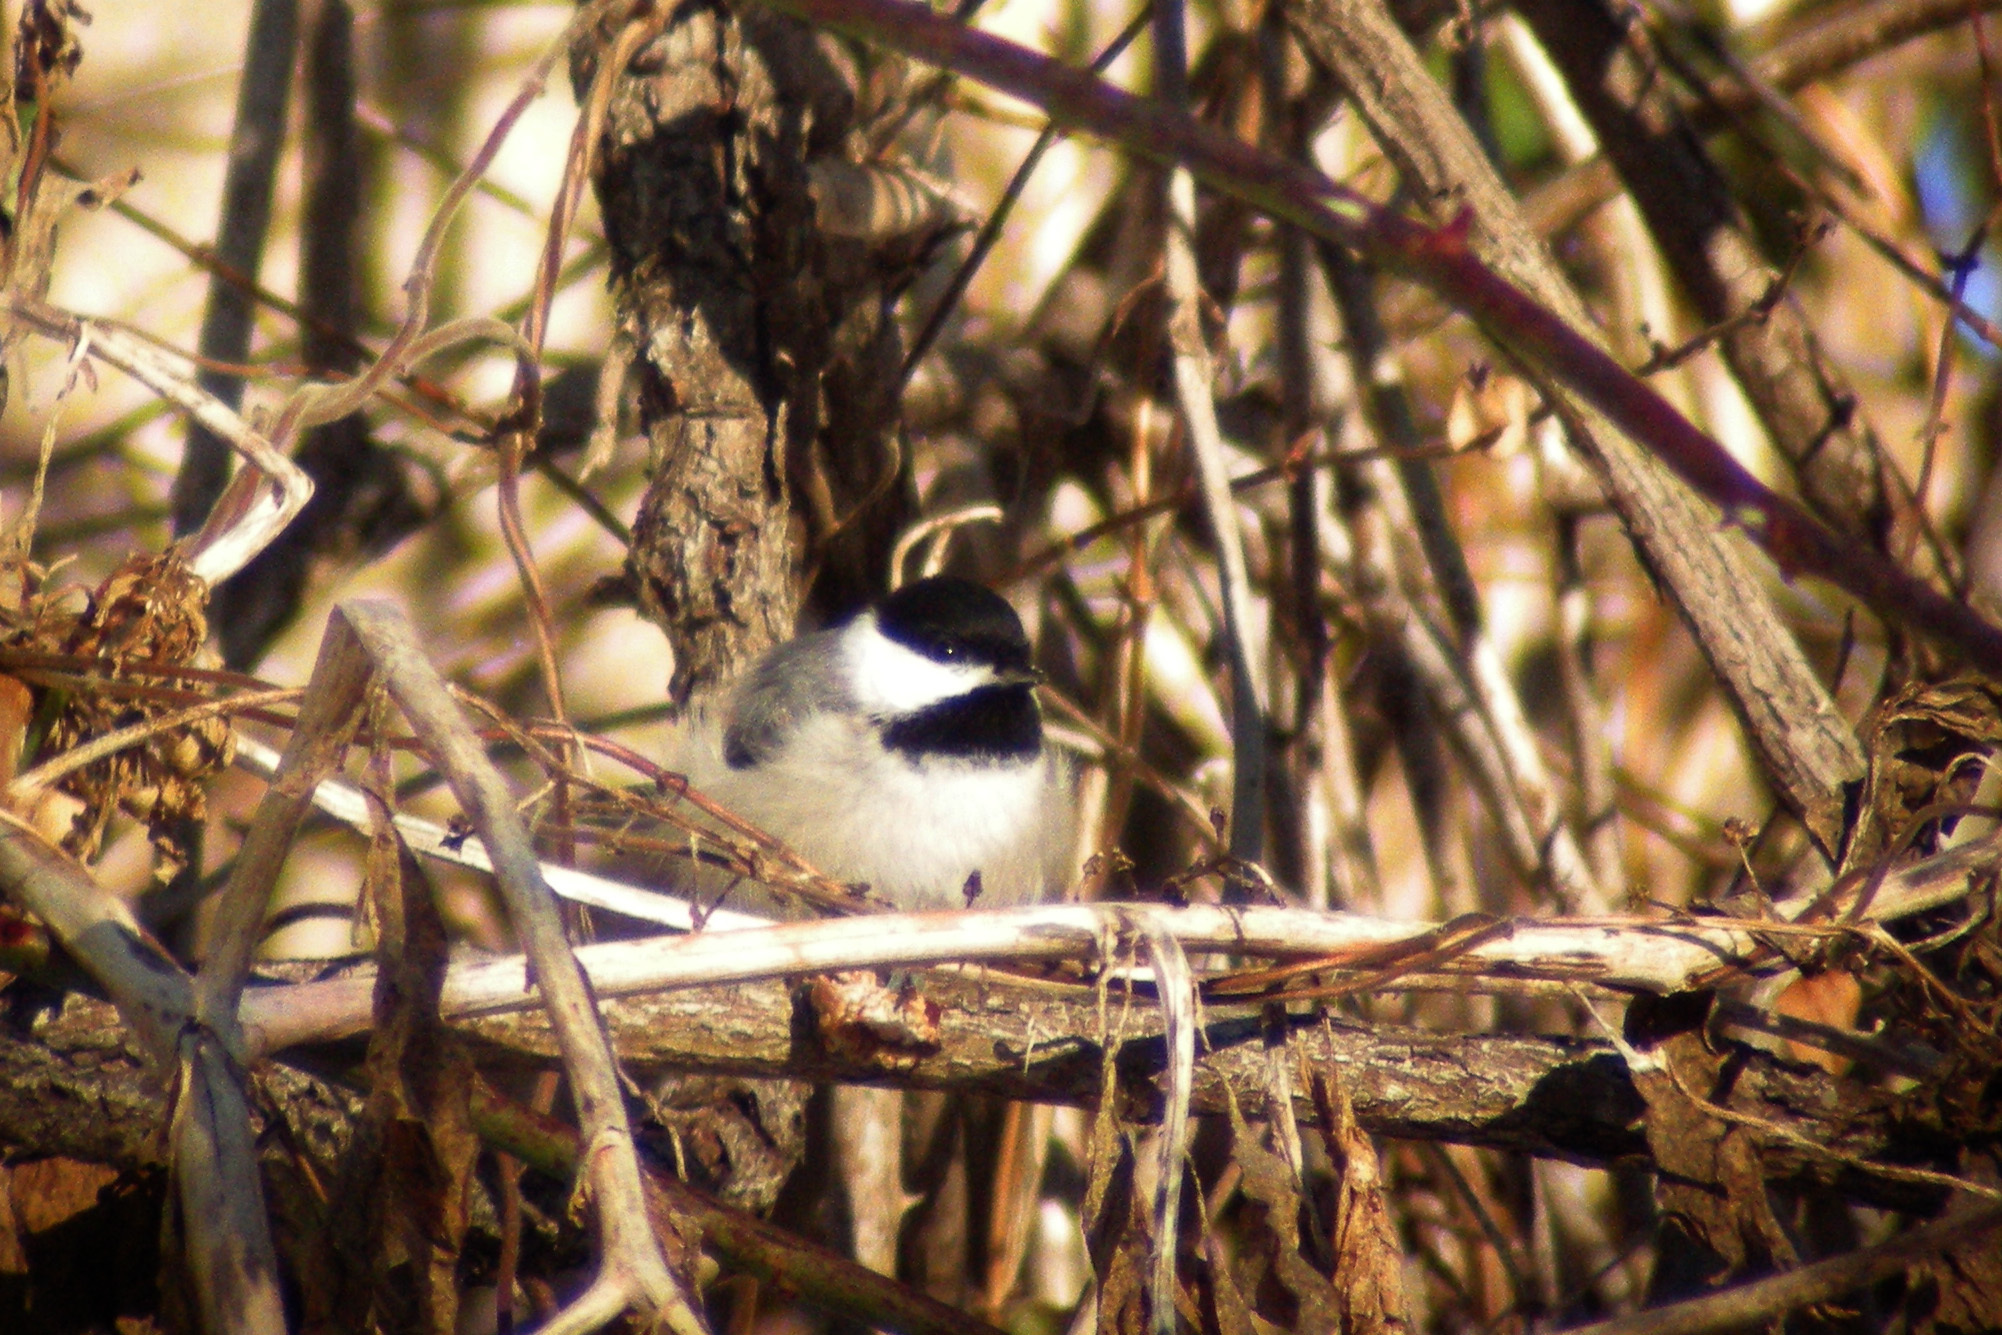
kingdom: Animalia
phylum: Chordata
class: Aves
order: Passeriformes
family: Paridae
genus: Poecile
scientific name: Poecile carolinensis
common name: Carolina chickadee
